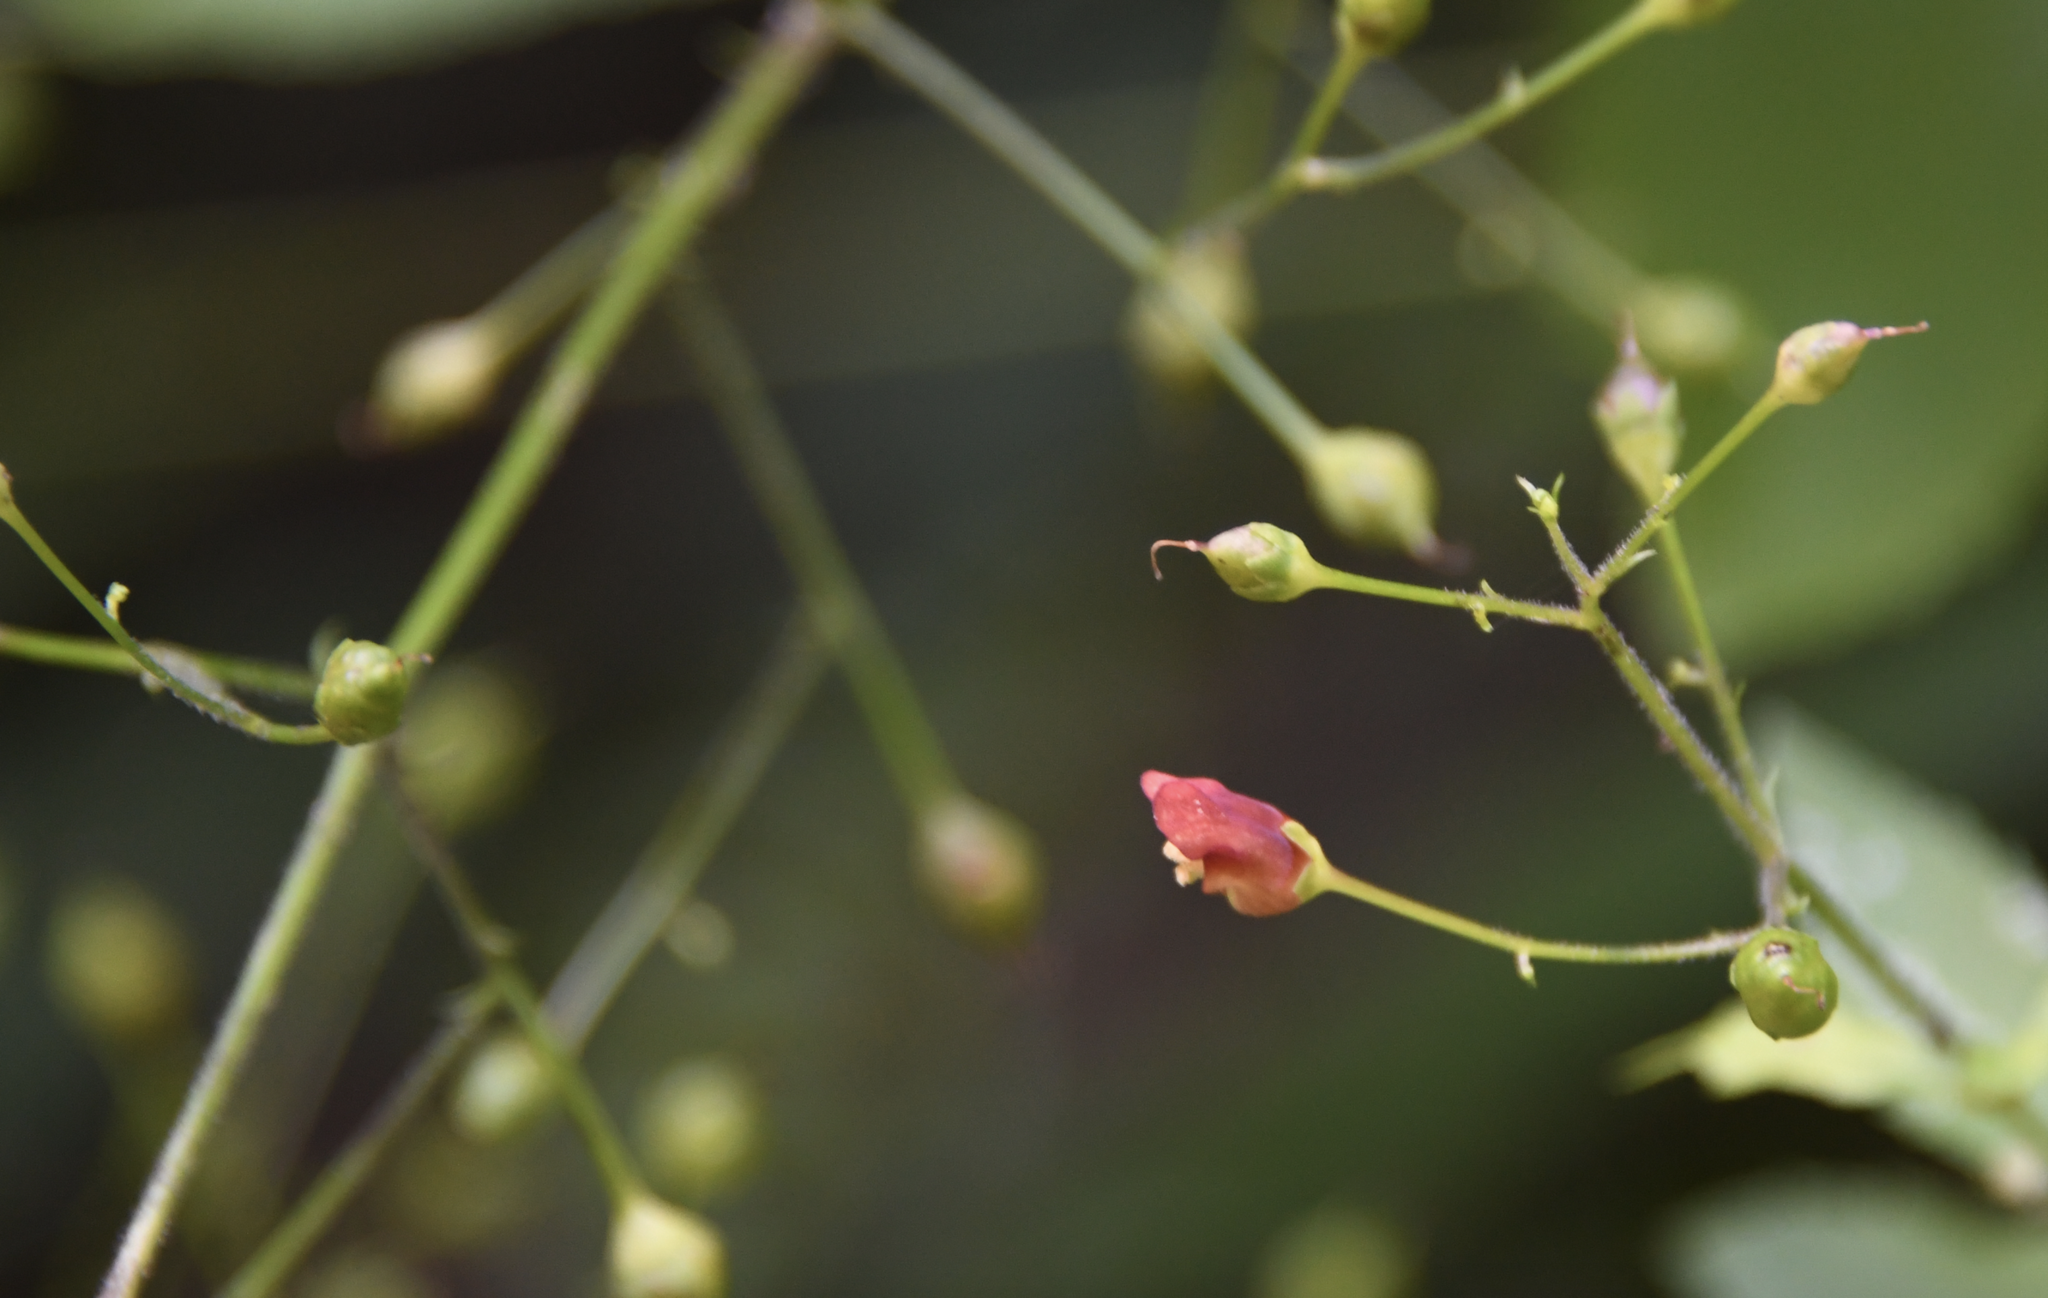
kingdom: Plantae
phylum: Tracheophyta
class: Magnoliopsida
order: Lamiales
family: Scrophulariaceae
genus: Scrophularia
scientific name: Scrophularia californica
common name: California figwort
